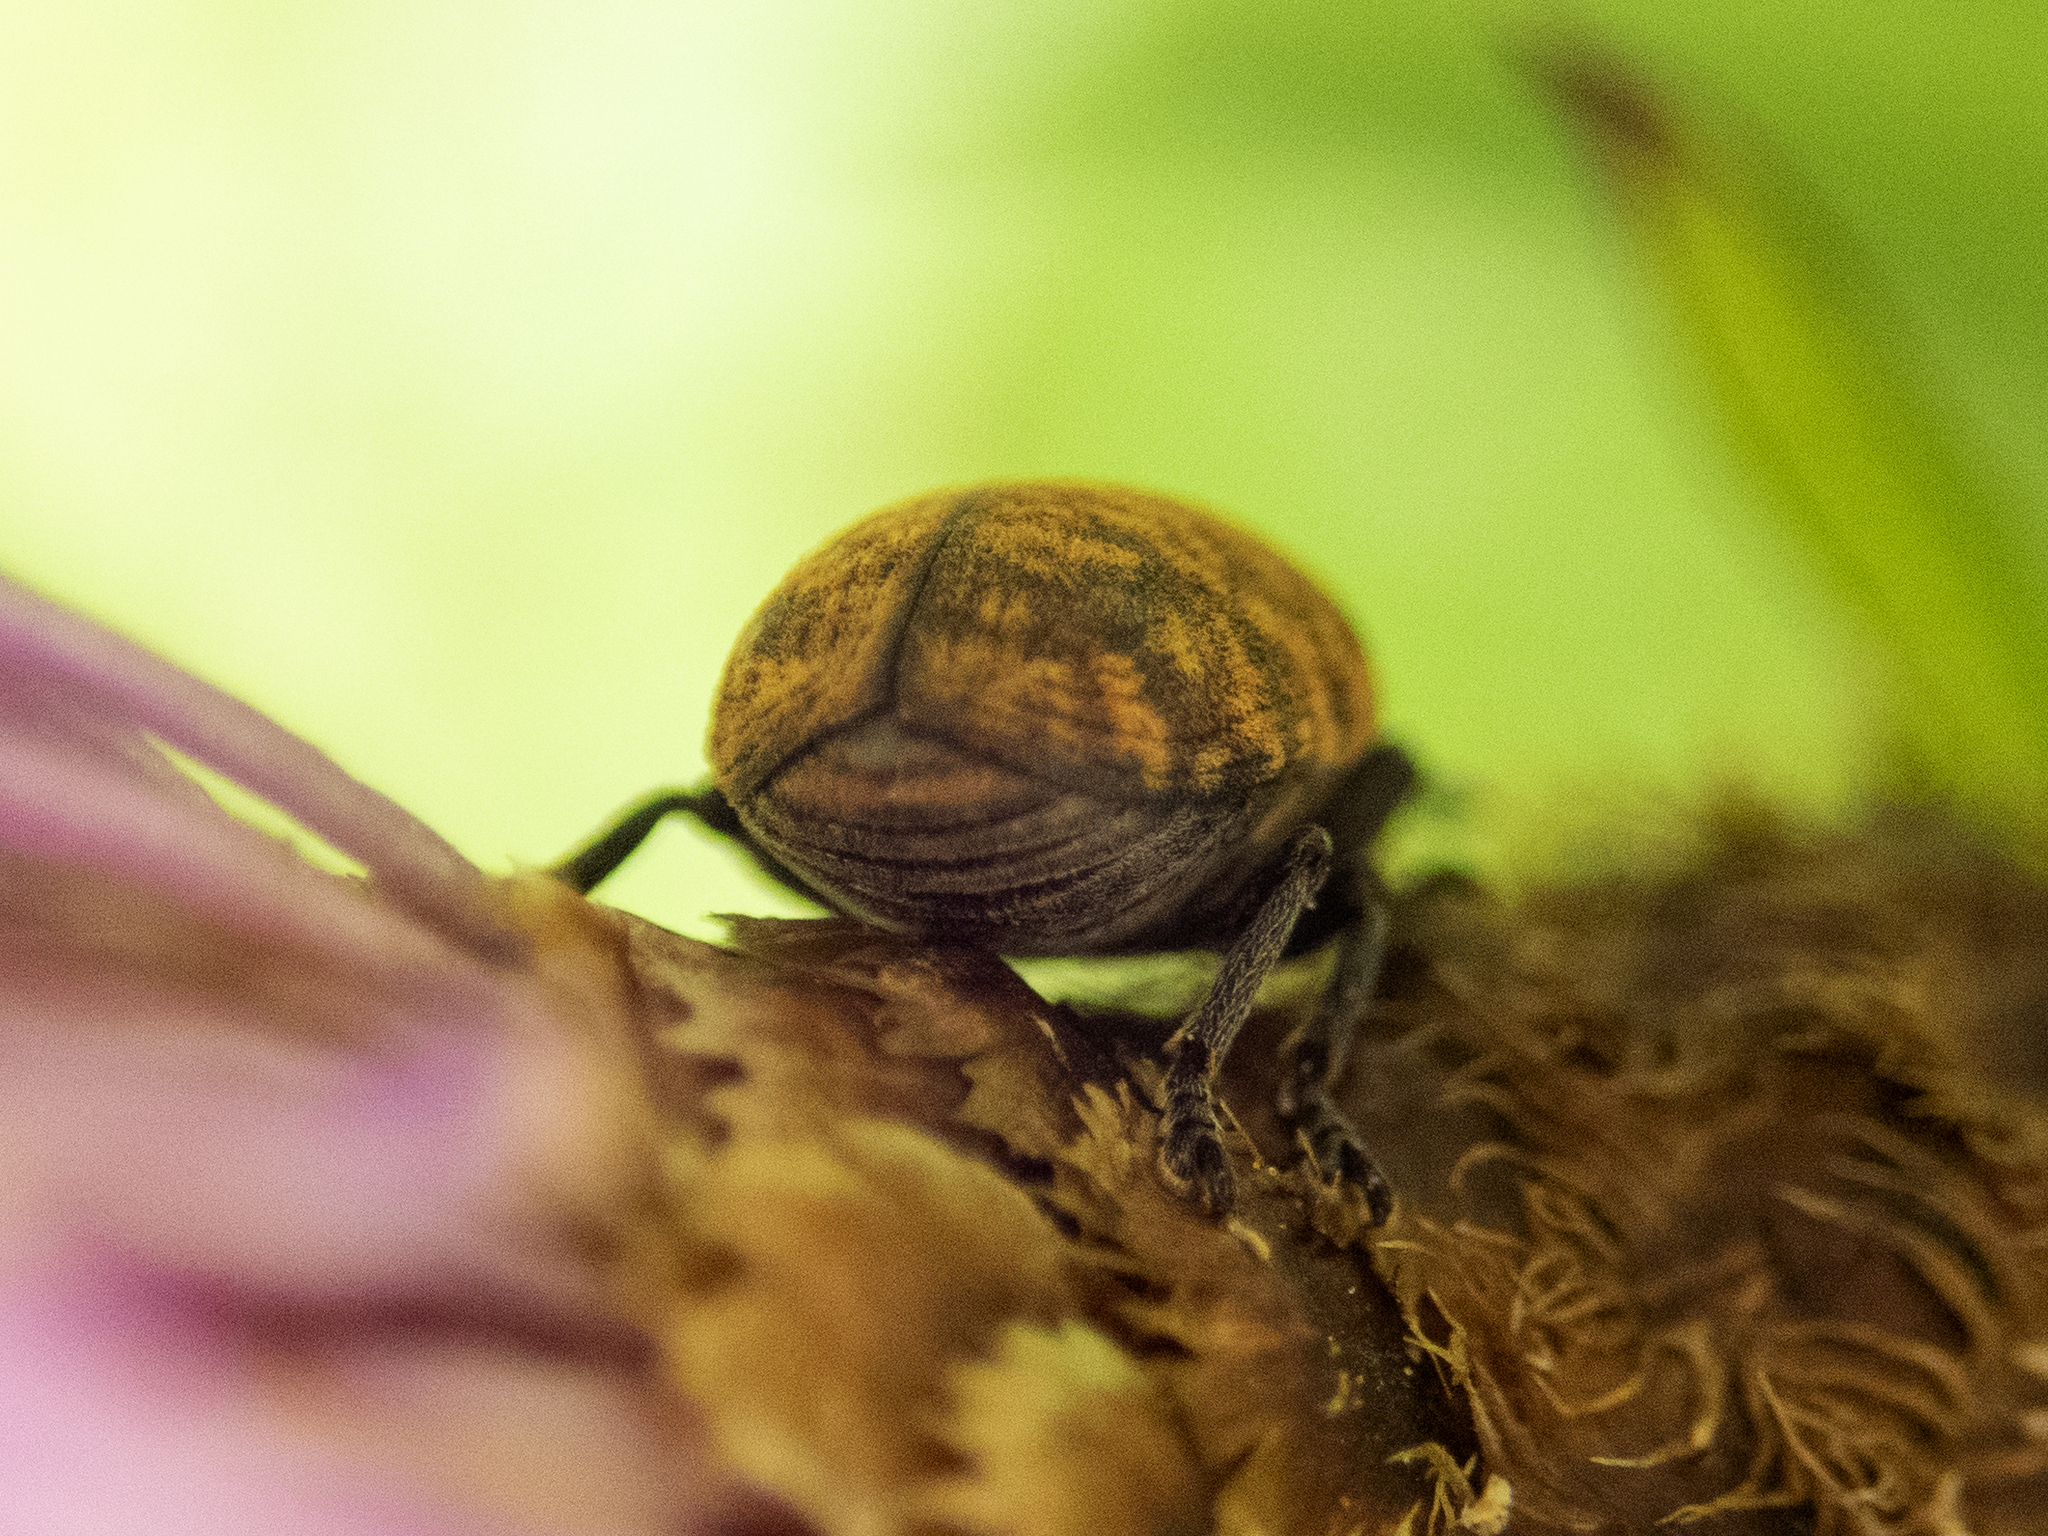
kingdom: Animalia
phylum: Arthropoda
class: Insecta
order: Coleoptera
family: Curculionidae
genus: Larinus
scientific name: Larinus obtusus
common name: Weevil
